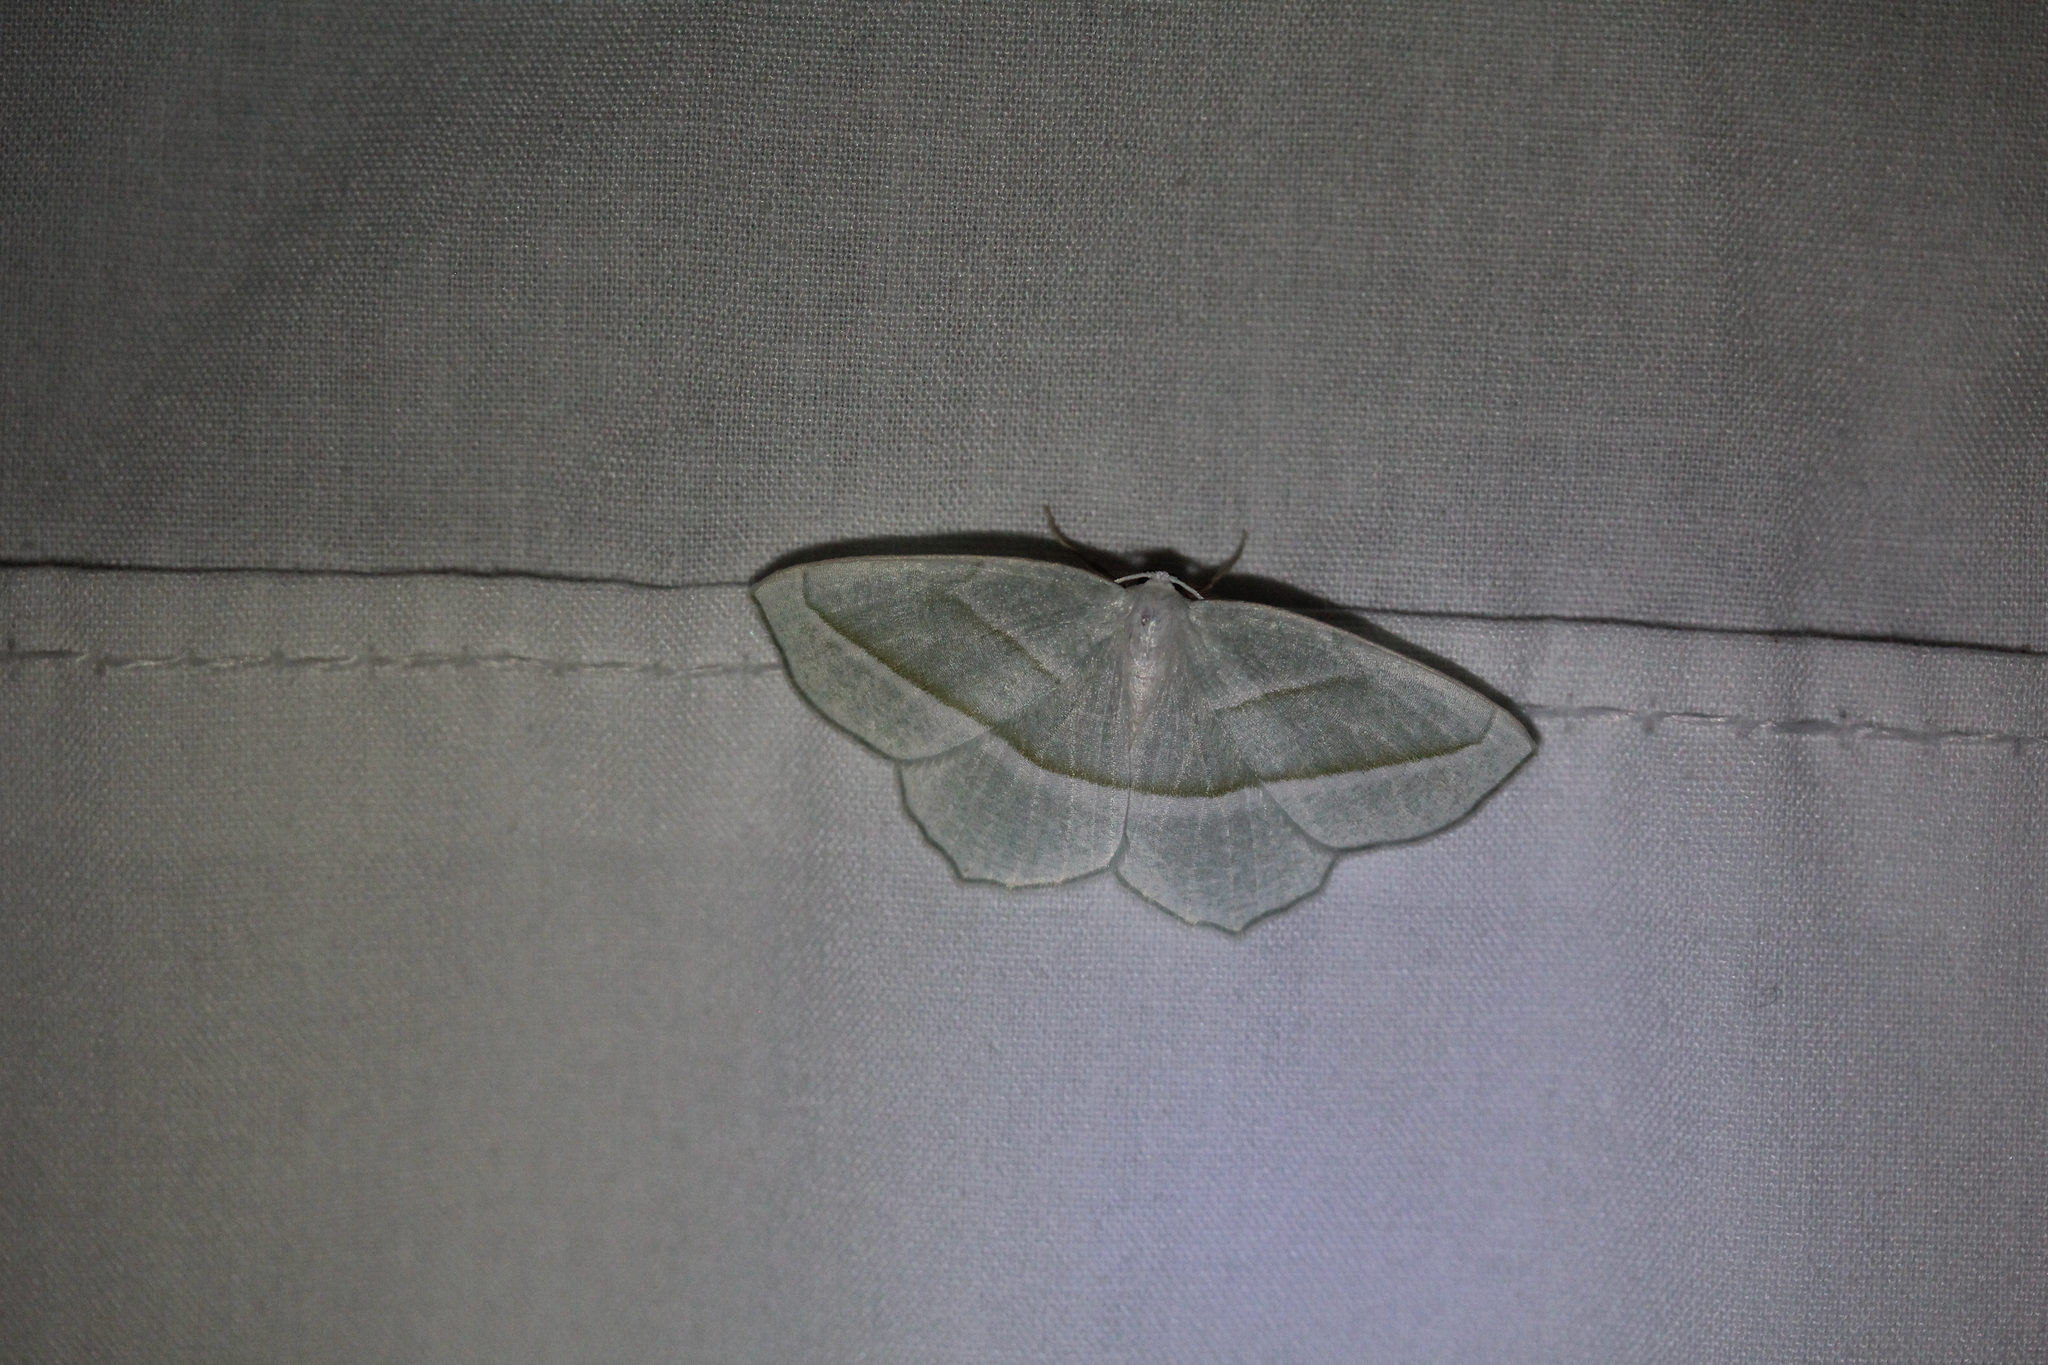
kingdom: Animalia
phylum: Arthropoda
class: Insecta
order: Lepidoptera
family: Geometridae
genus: Campaea
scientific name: Campaea perlata
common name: Fringed looper
